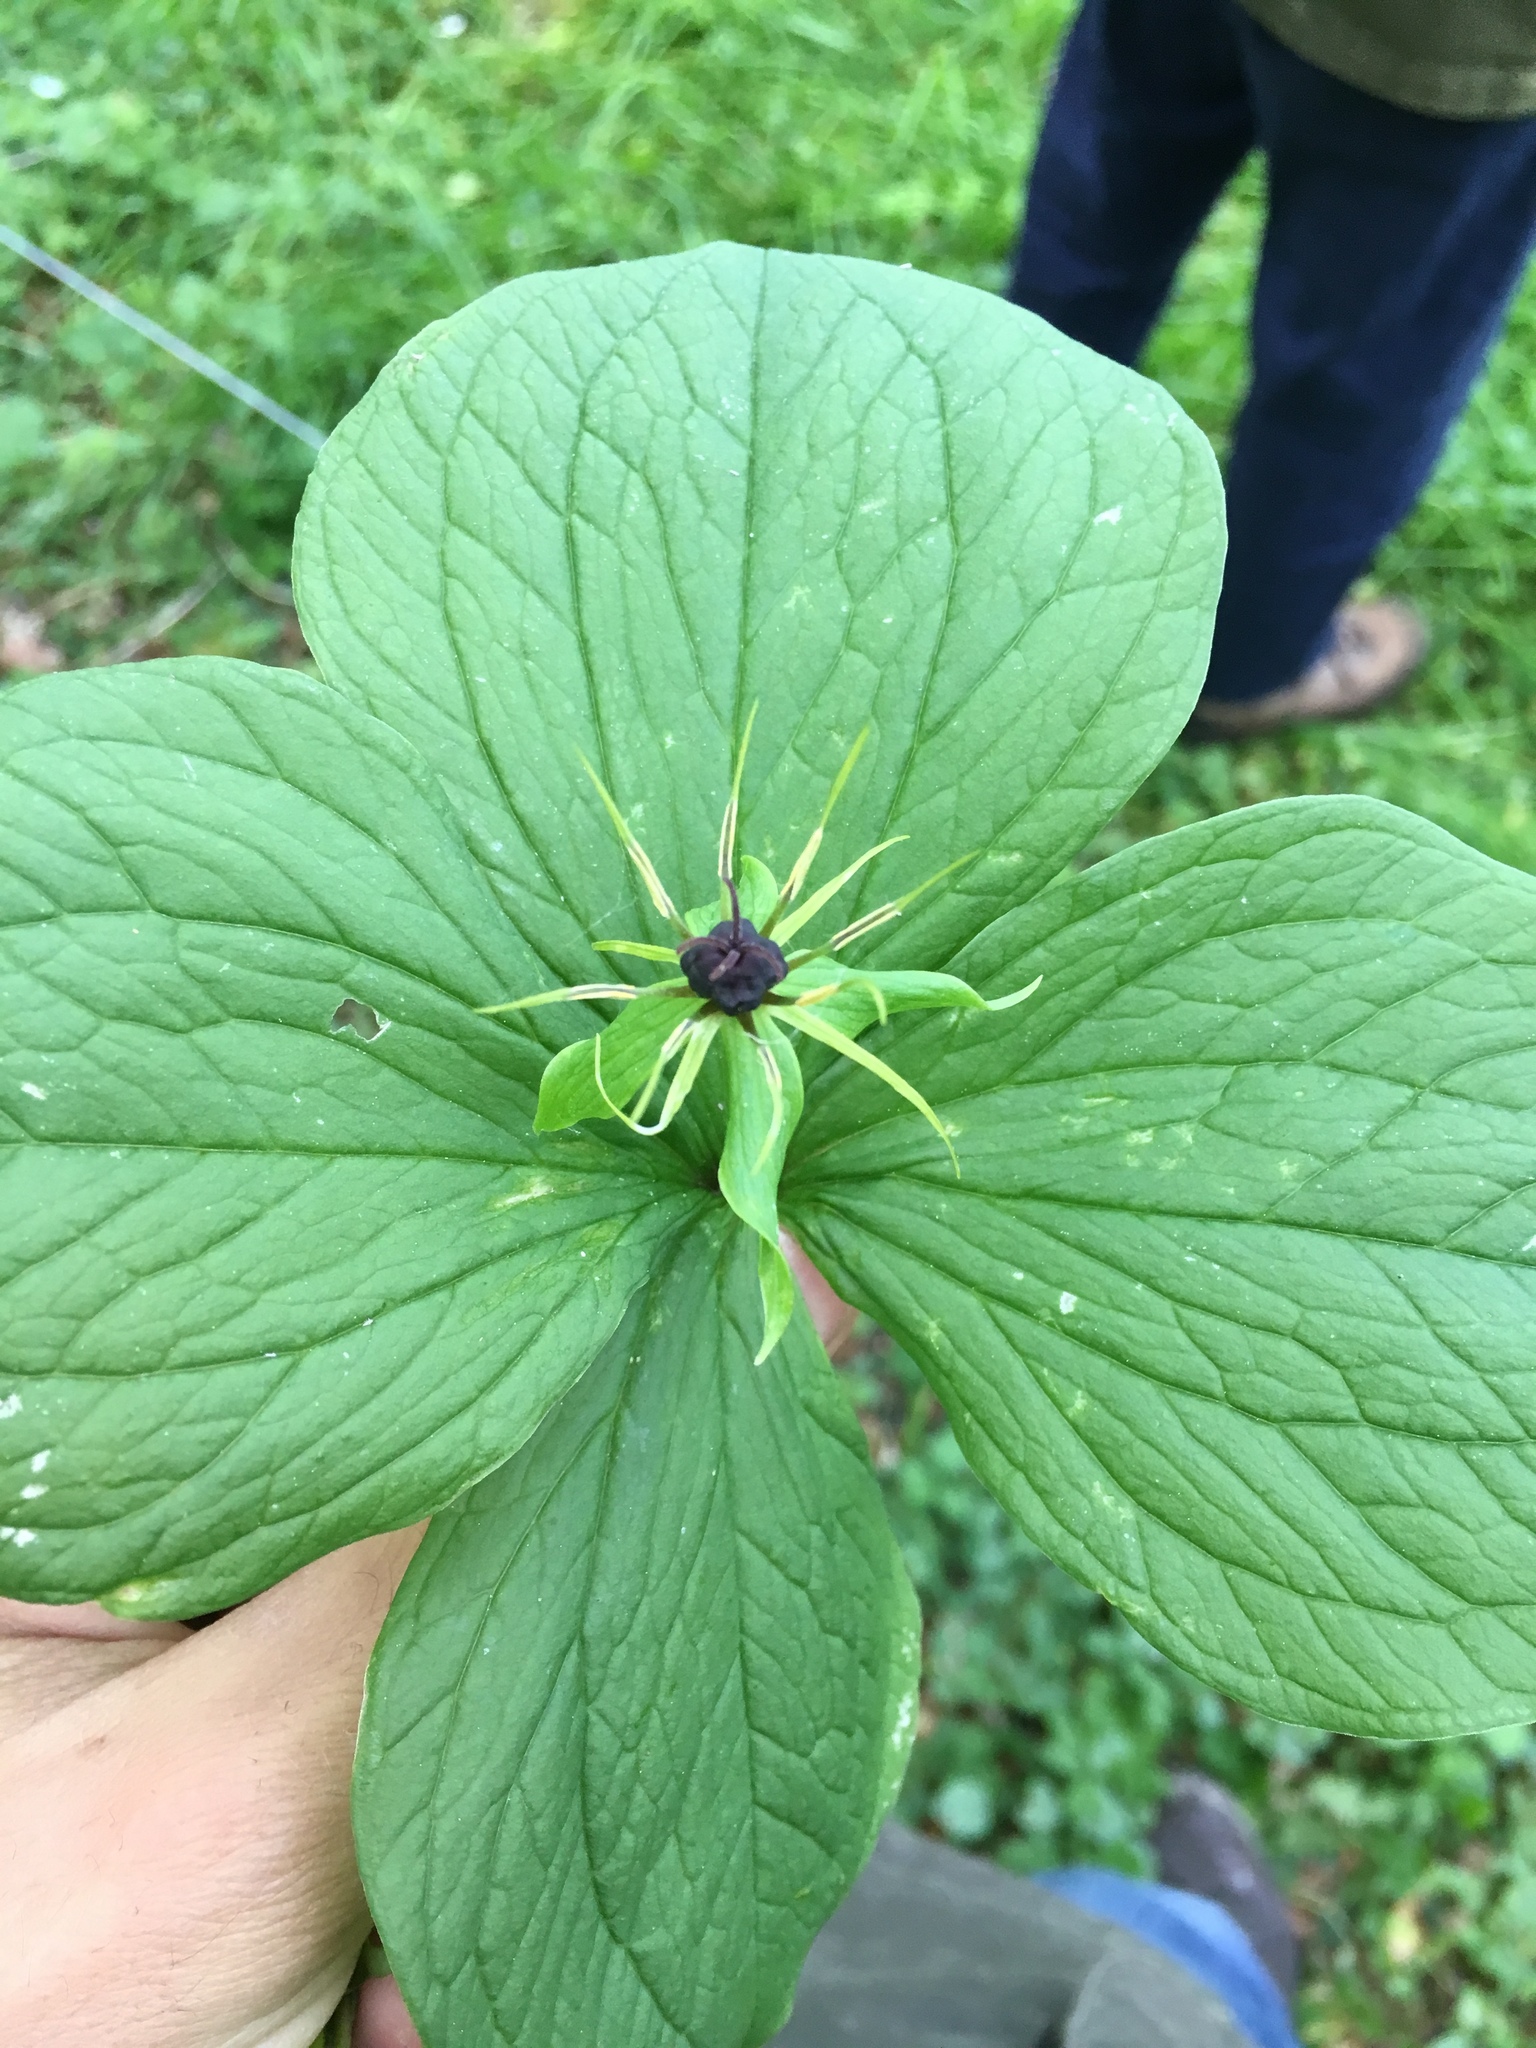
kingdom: Plantae
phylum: Tracheophyta
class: Liliopsida
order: Liliales
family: Melanthiaceae
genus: Paris
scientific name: Paris quadrifolia
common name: Herb-paris
